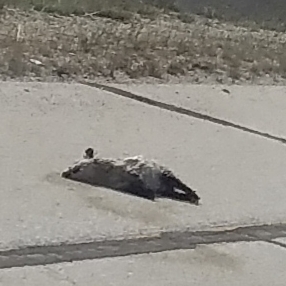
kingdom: Animalia
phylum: Chordata
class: Mammalia
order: Didelphimorphia
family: Didelphidae
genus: Didelphis
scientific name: Didelphis virginiana
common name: Virginia opossum
